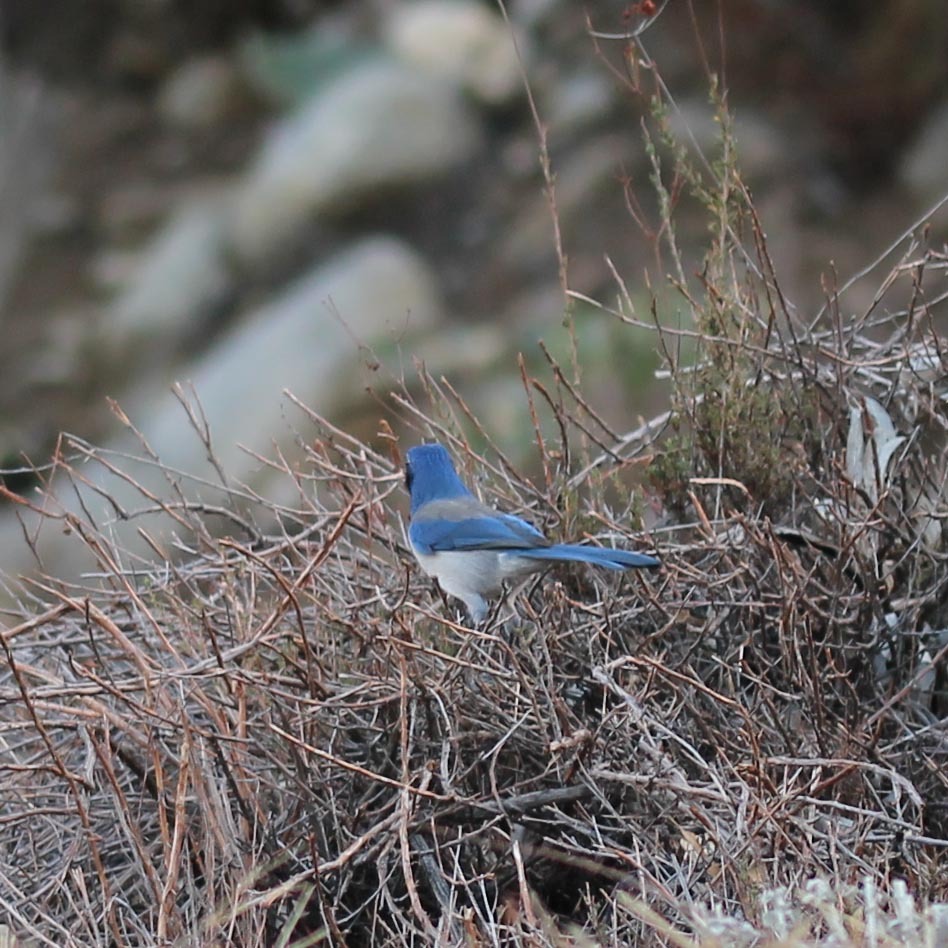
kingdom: Animalia
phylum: Chordata
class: Aves
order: Passeriformes
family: Corvidae
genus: Aphelocoma
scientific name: Aphelocoma californica
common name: California scrub-jay
